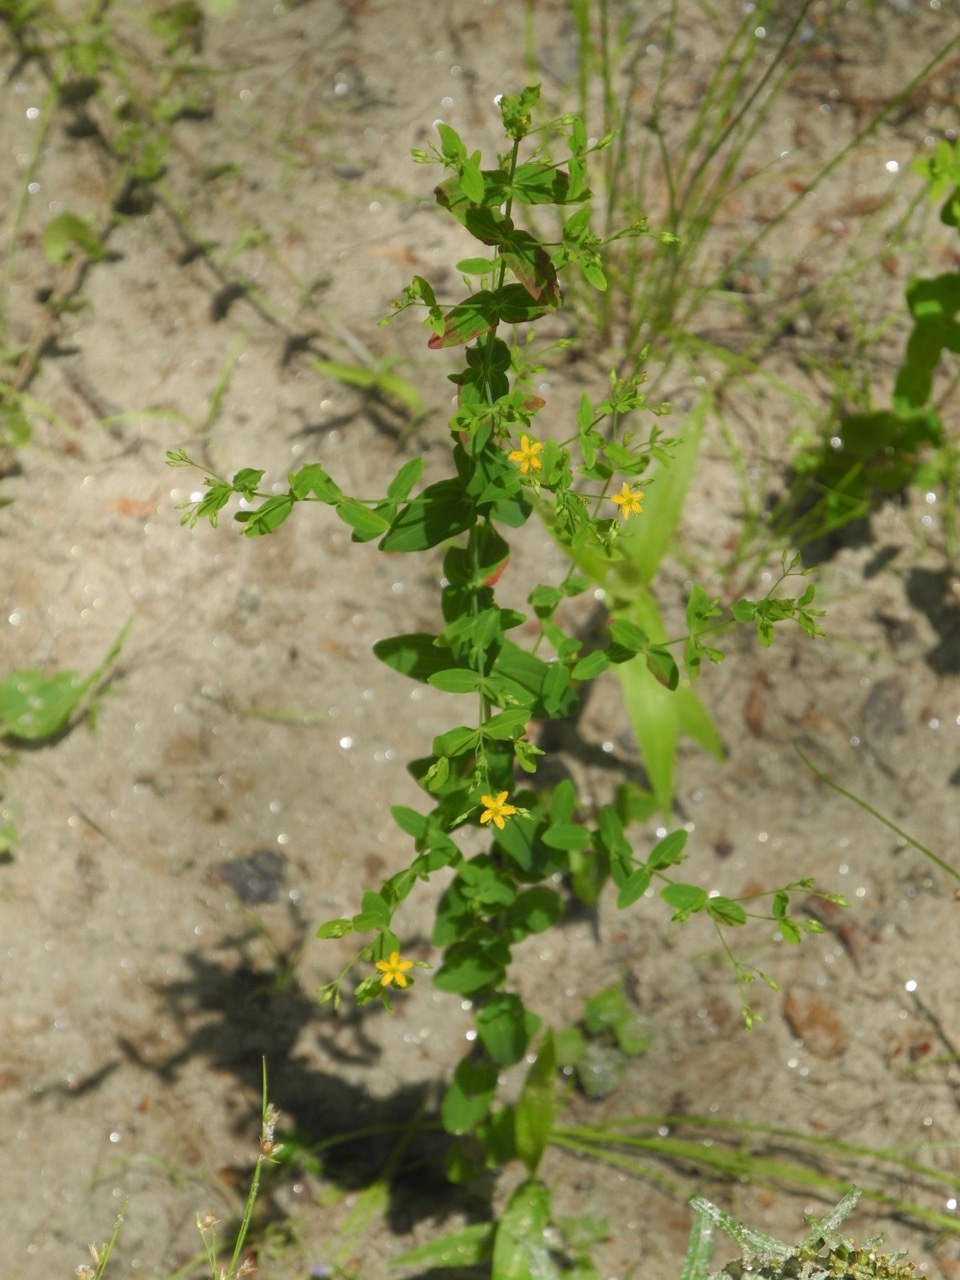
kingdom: Plantae
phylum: Tracheophyta
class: Magnoliopsida
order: Malpighiales
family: Hypericaceae
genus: Hypericum
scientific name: Hypericum mutilum
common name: Dwarf st. john's-wort
